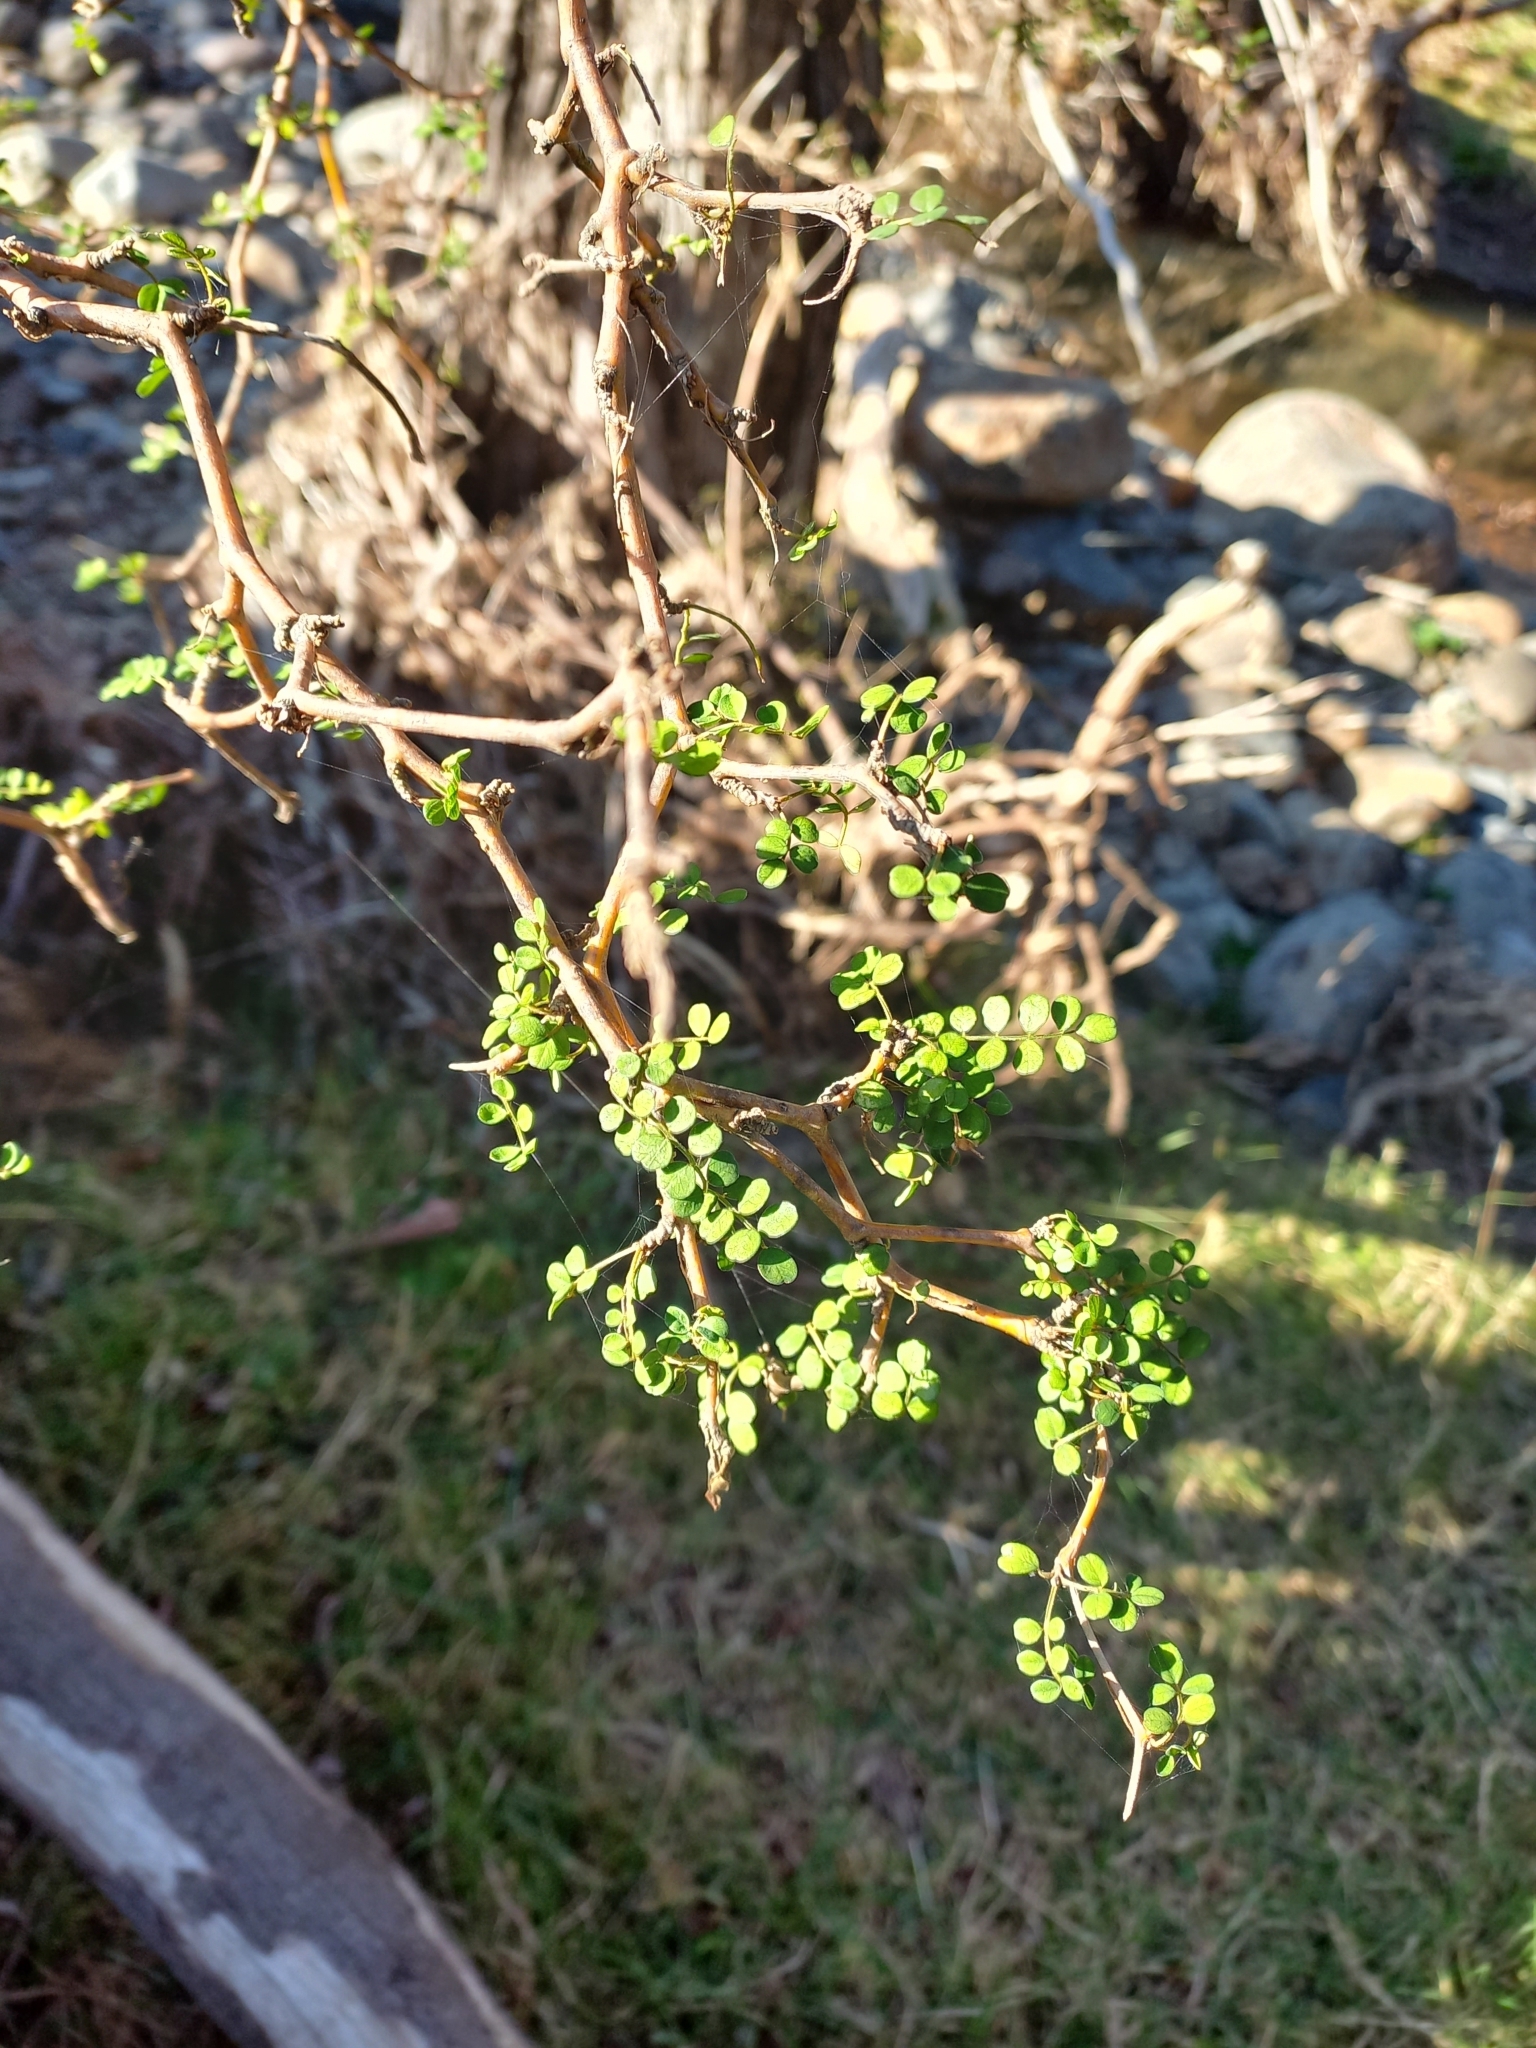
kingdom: Plantae
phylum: Tracheophyta
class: Magnoliopsida
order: Fabales
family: Fabaceae
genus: Sophora
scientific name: Sophora microphylla
